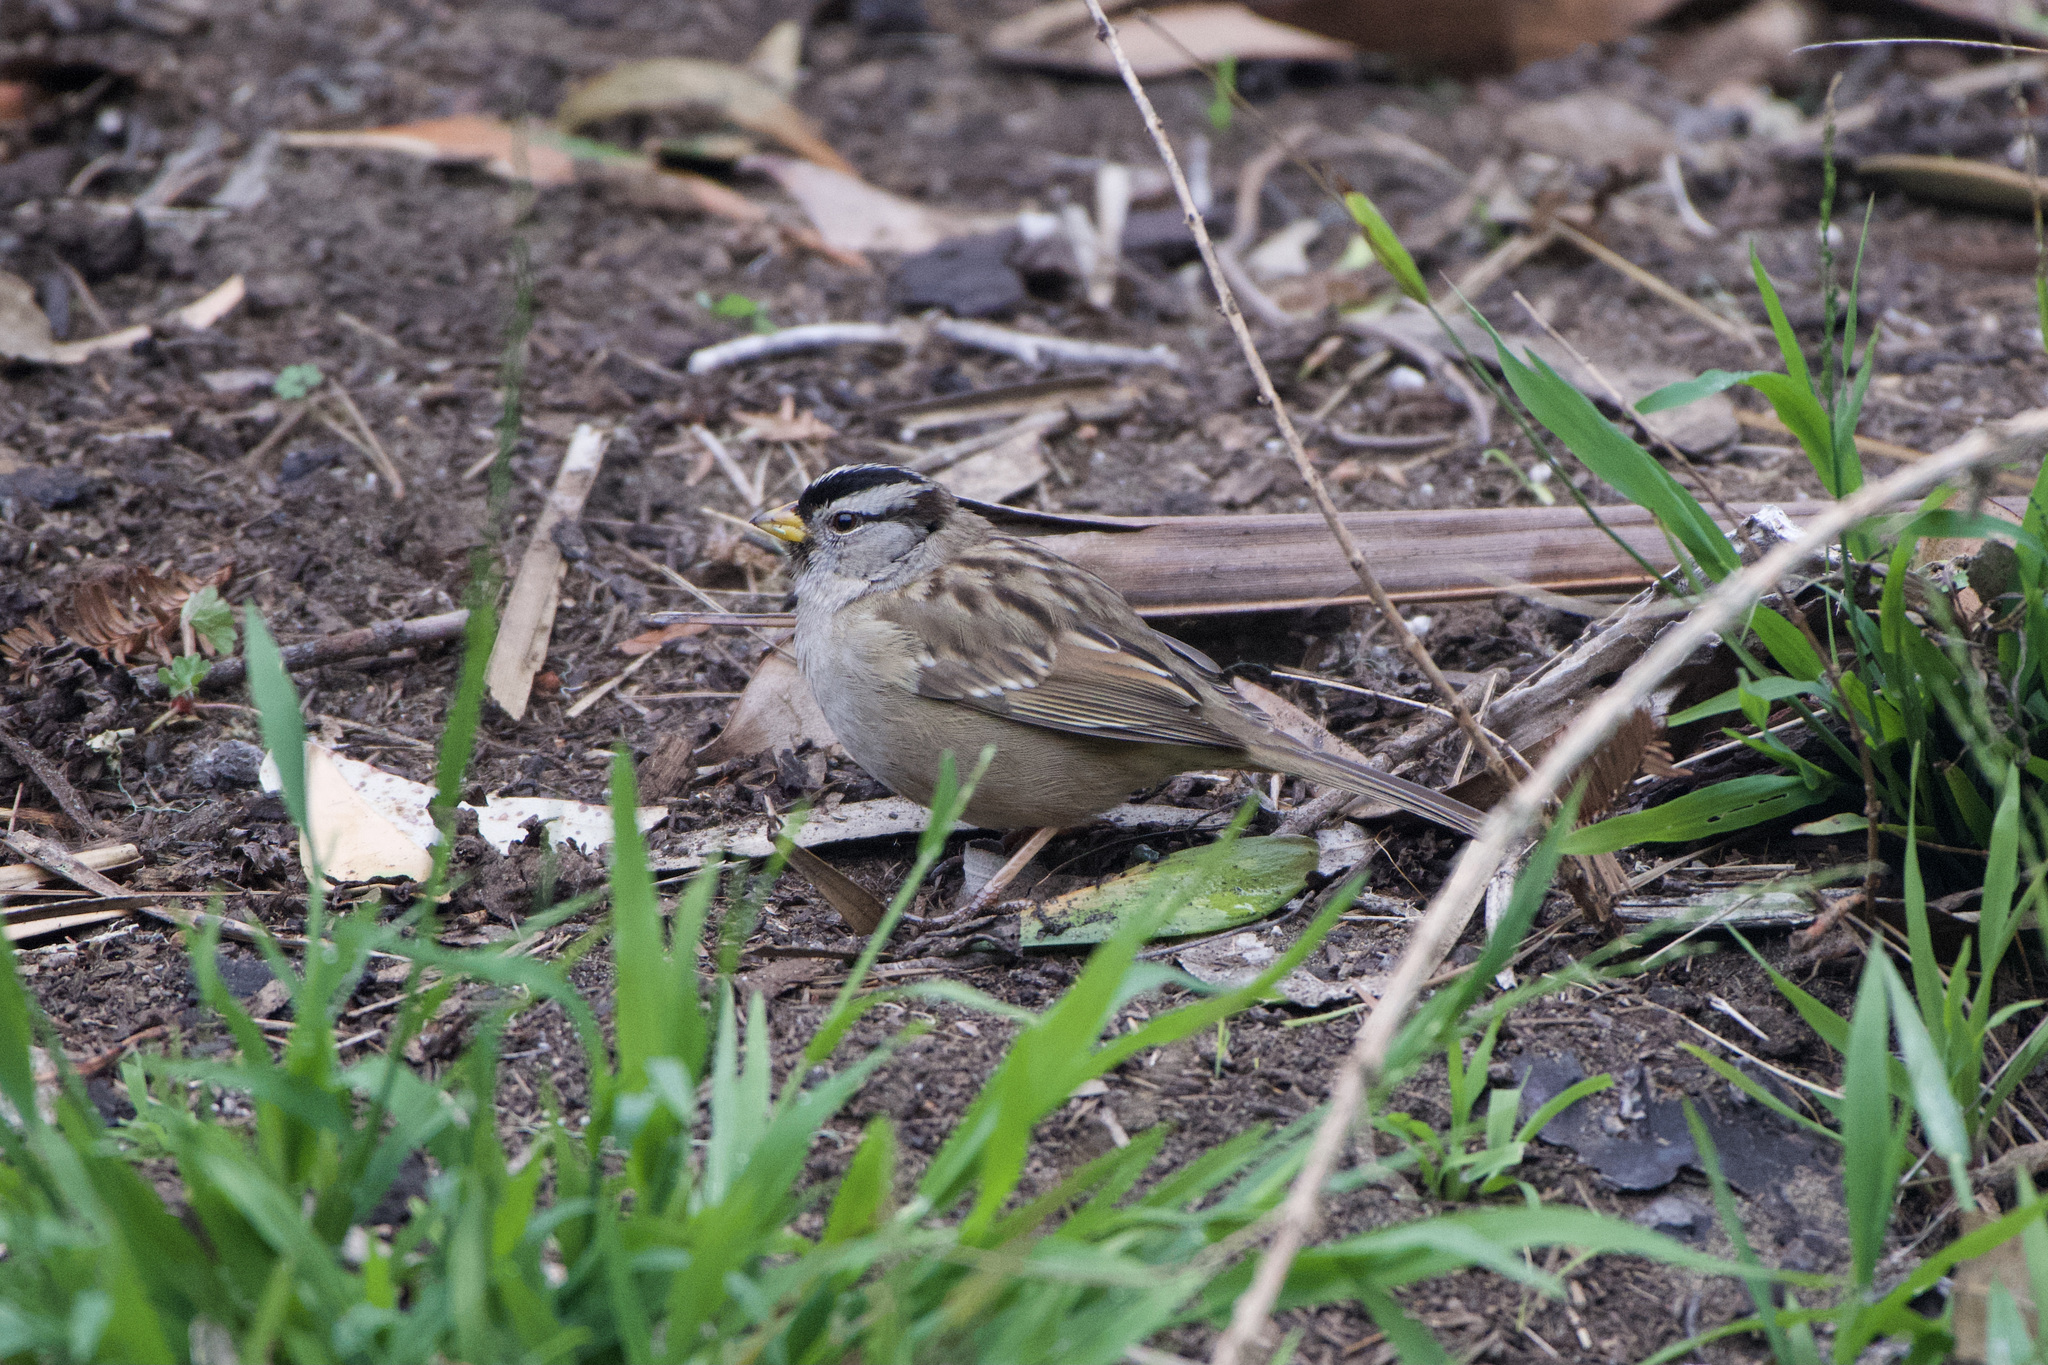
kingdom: Animalia
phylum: Chordata
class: Aves
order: Passeriformes
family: Passerellidae
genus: Zonotrichia
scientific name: Zonotrichia leucophrys
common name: White-crowned sparrow
